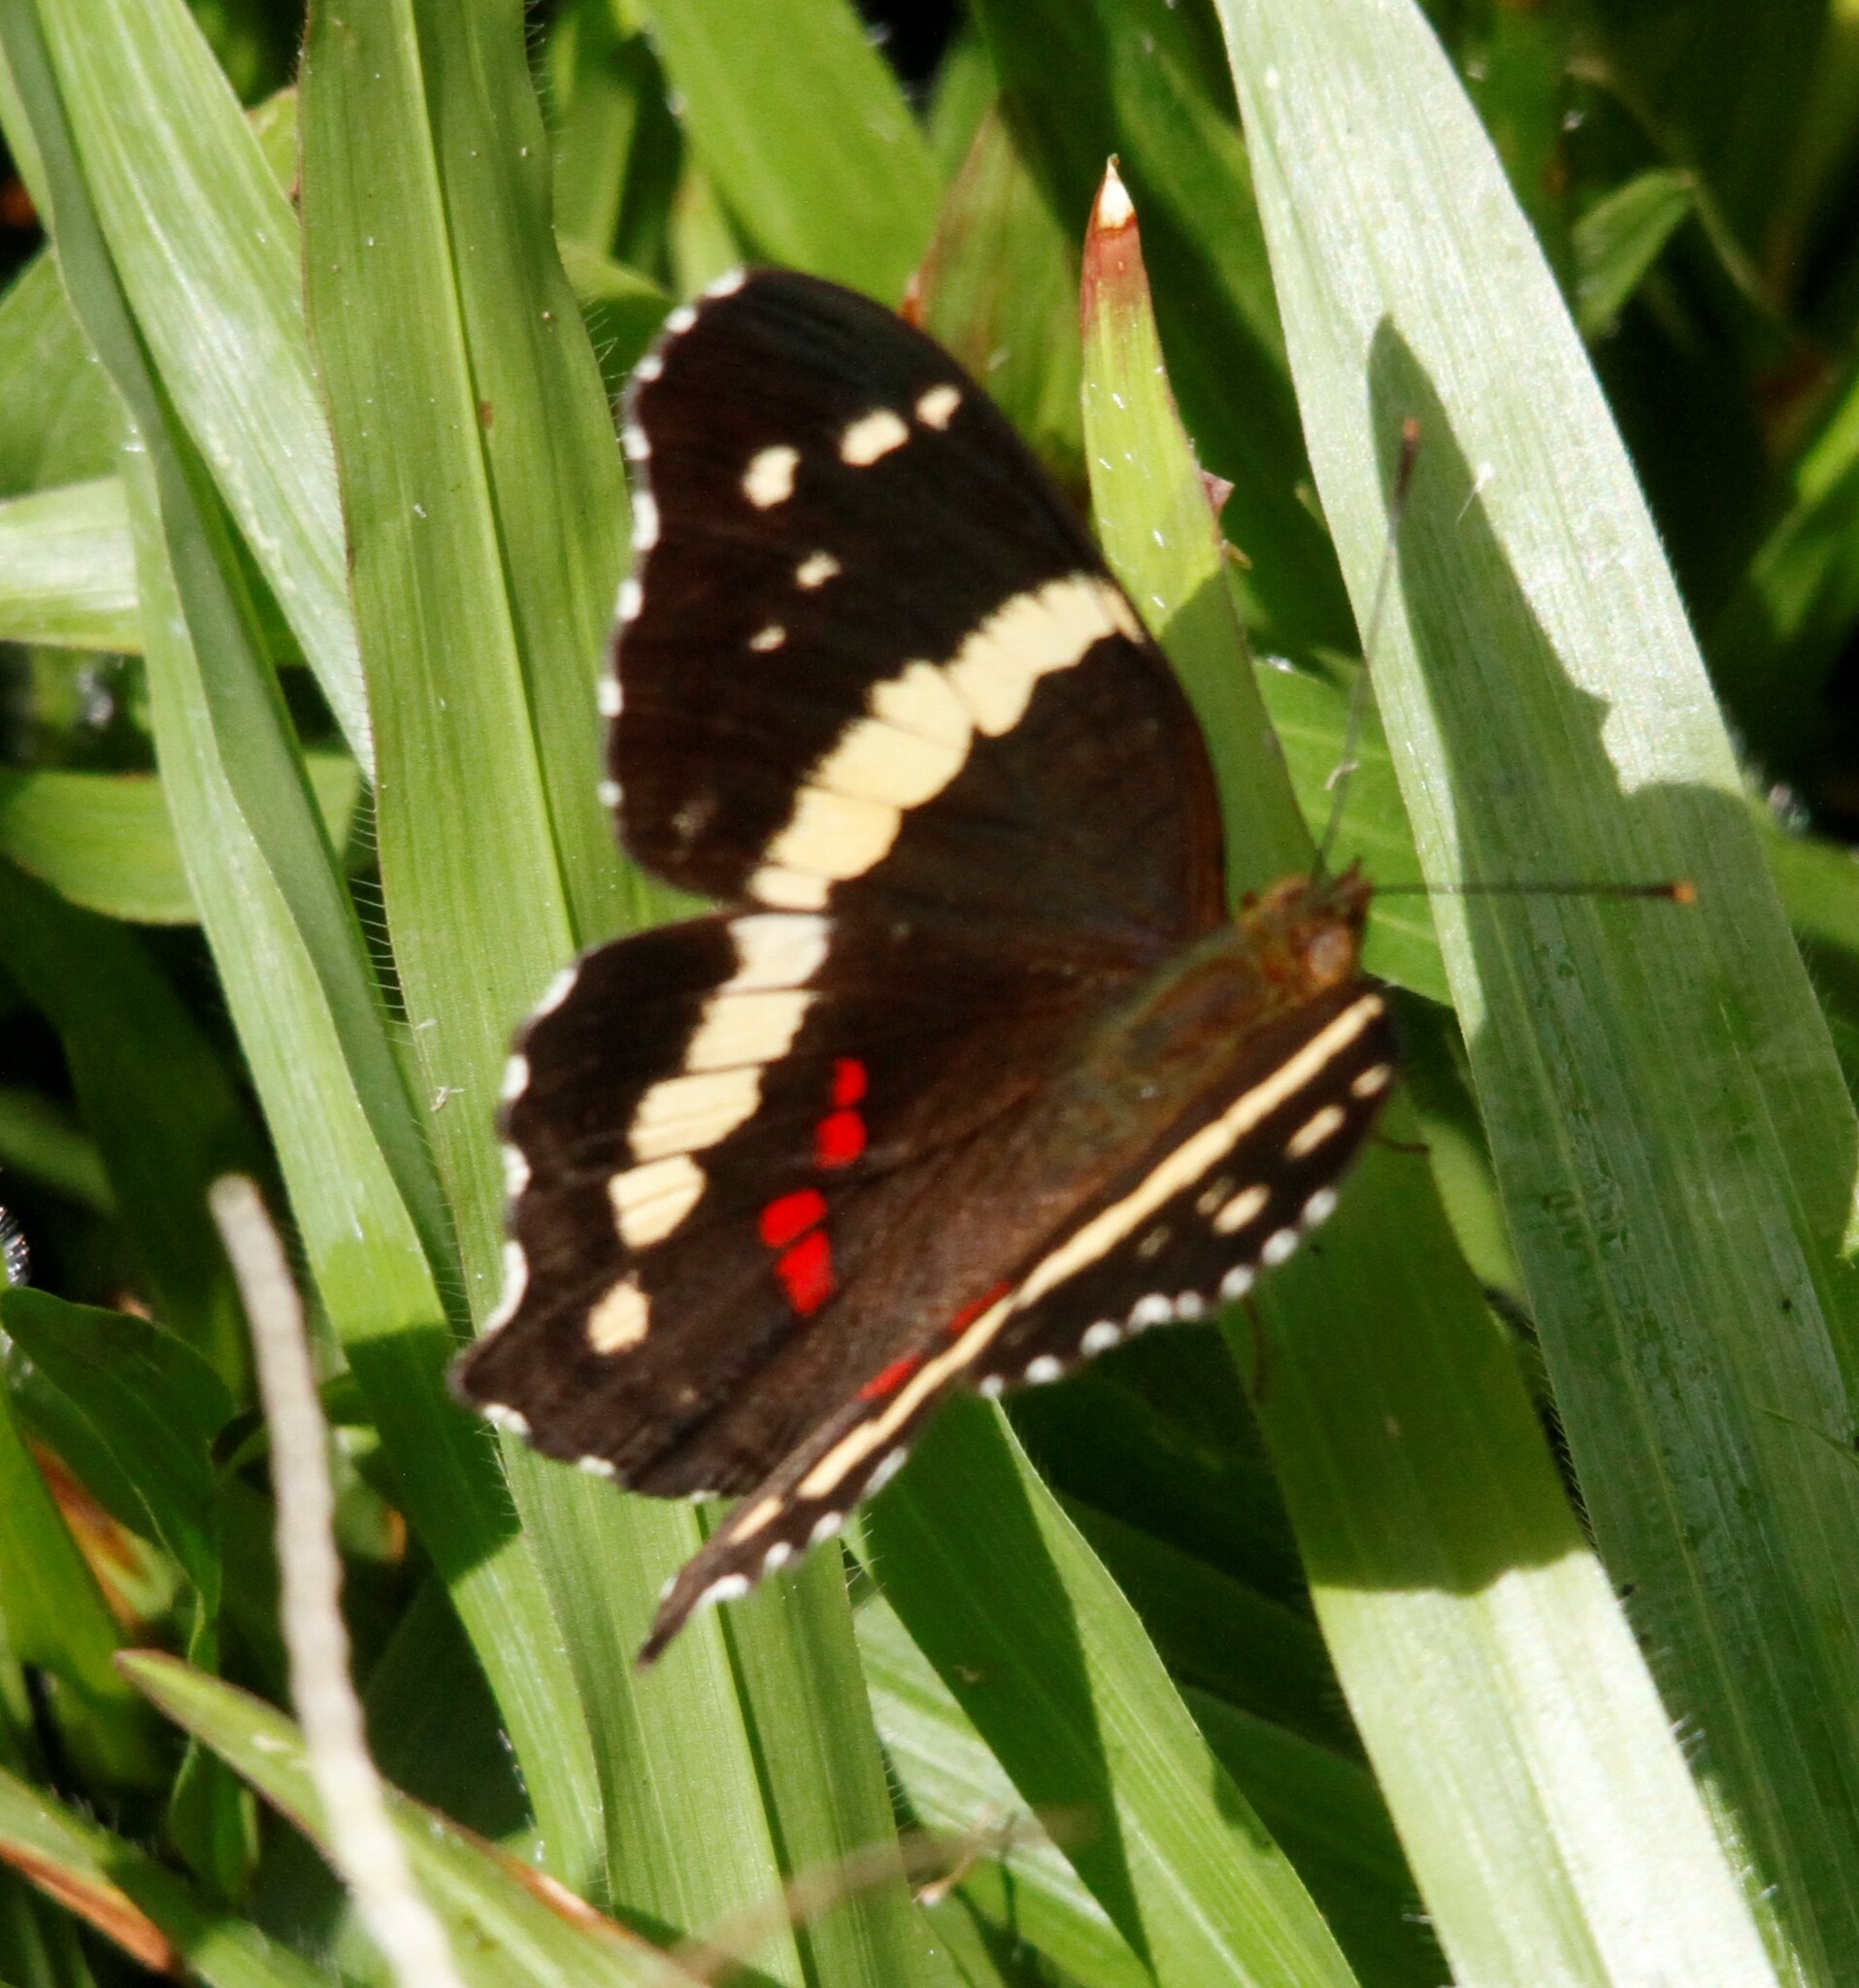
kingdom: Animalia
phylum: Arthropoda
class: Insecta
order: Lepidoptera
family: Nymphalidae
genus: Anartia
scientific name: Anartia fatima
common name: Banded peacock
